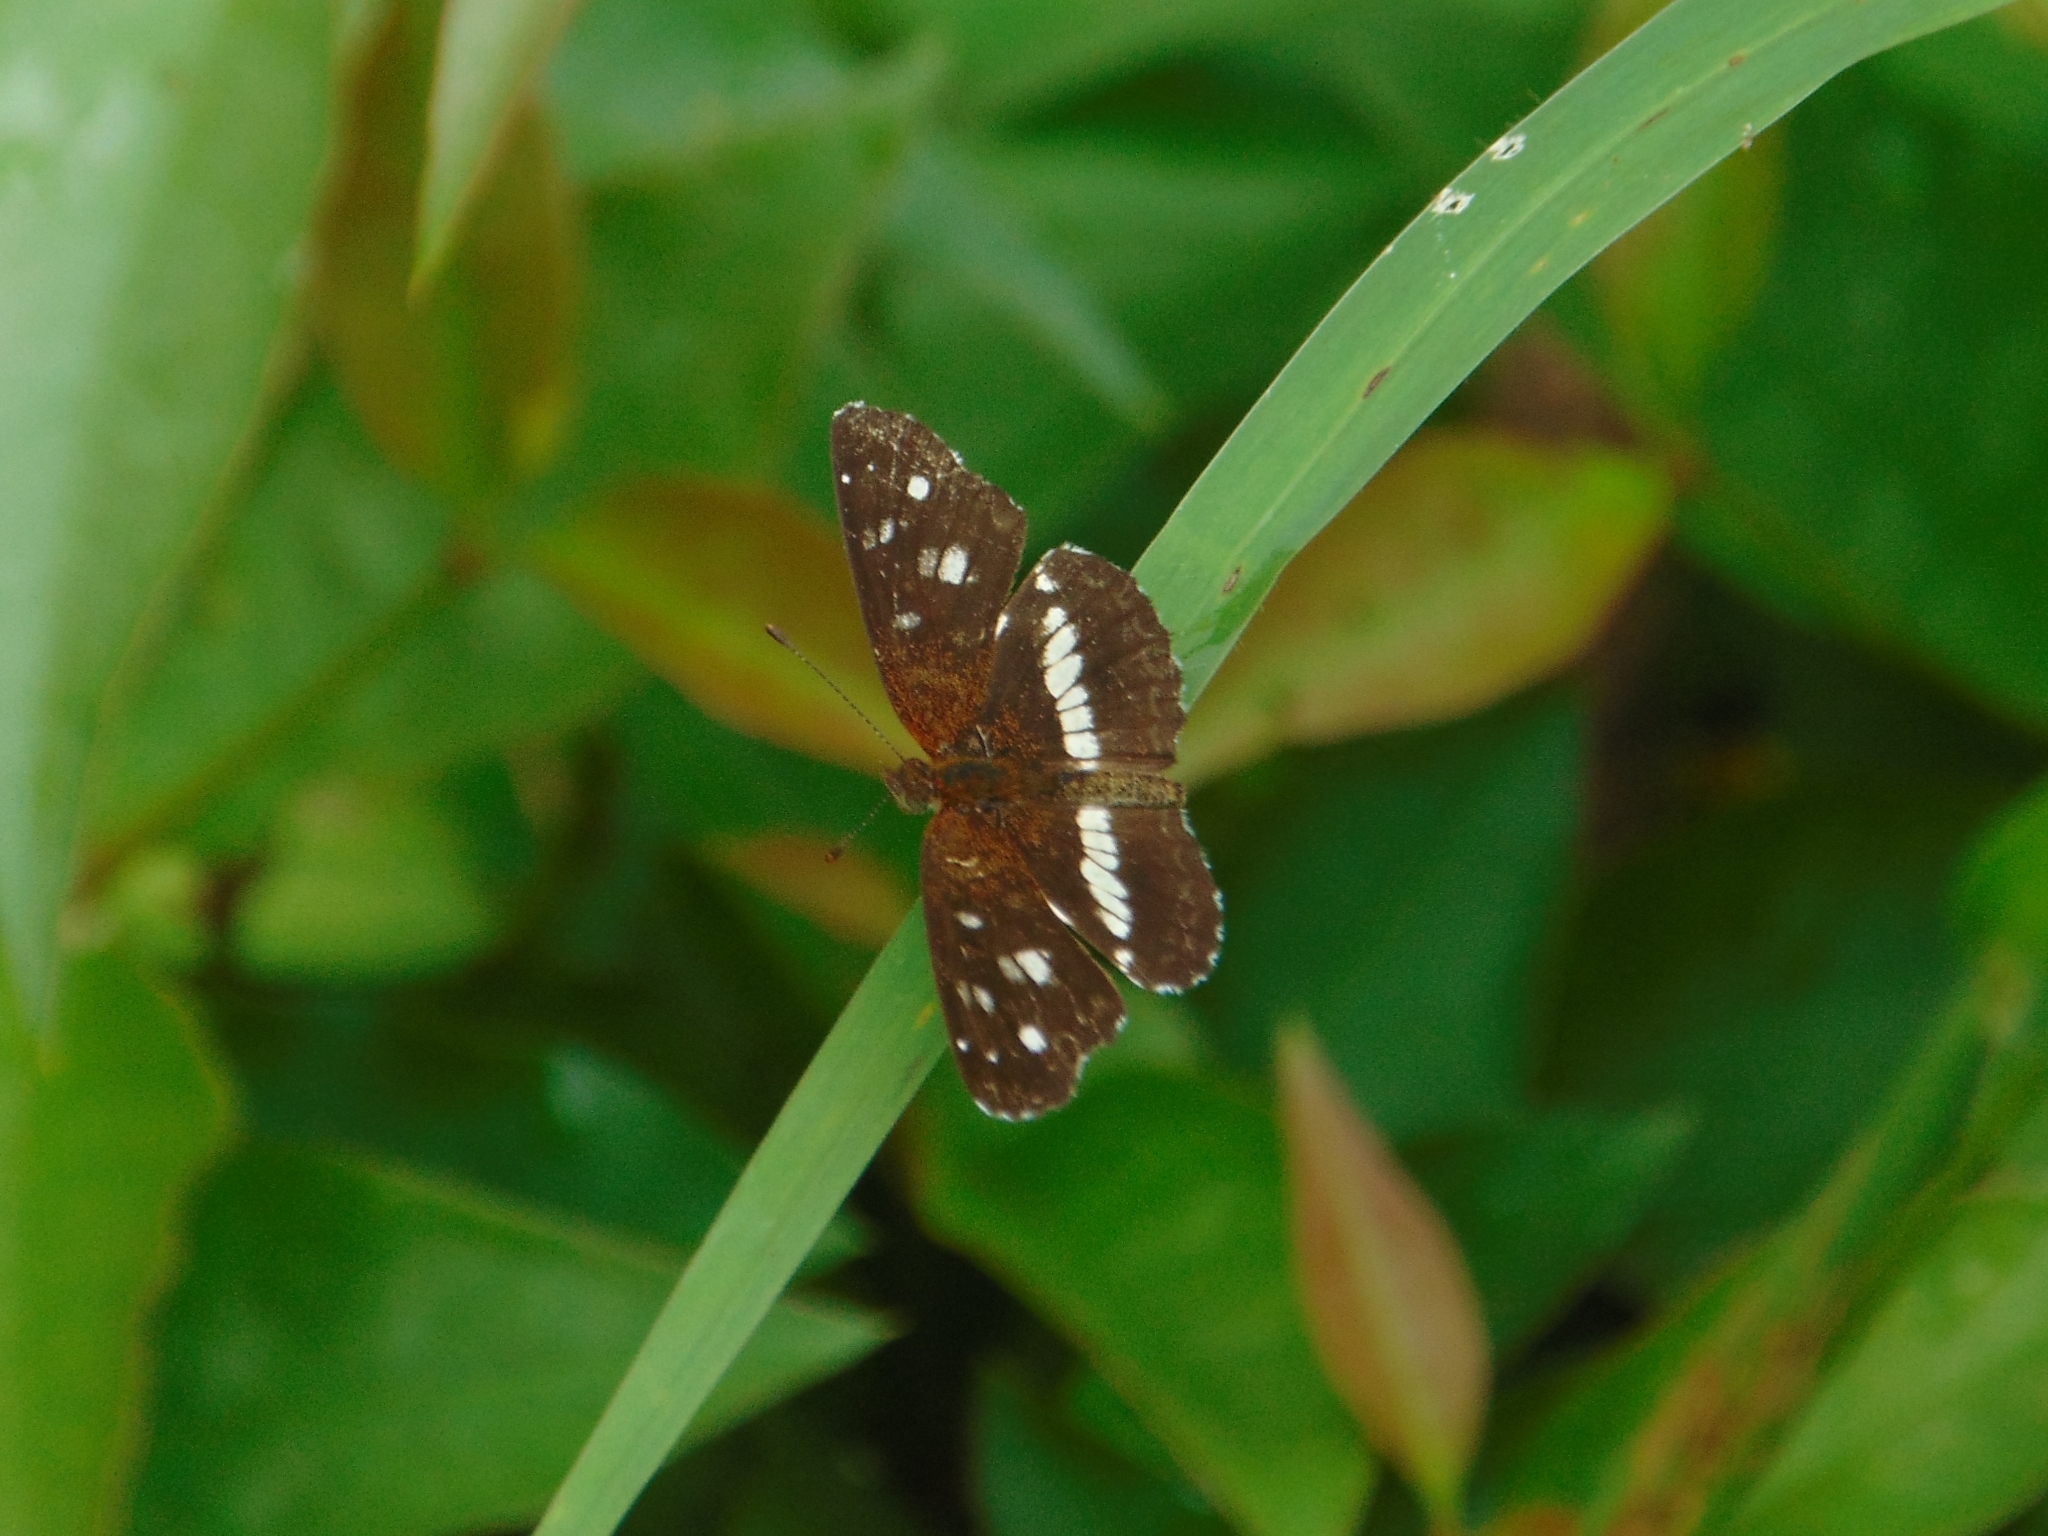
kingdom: Animalia
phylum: Arthropoda
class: Insecta
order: Lepidoptera
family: Nymphalidae
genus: Ortilia
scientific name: Ortilia ithra
